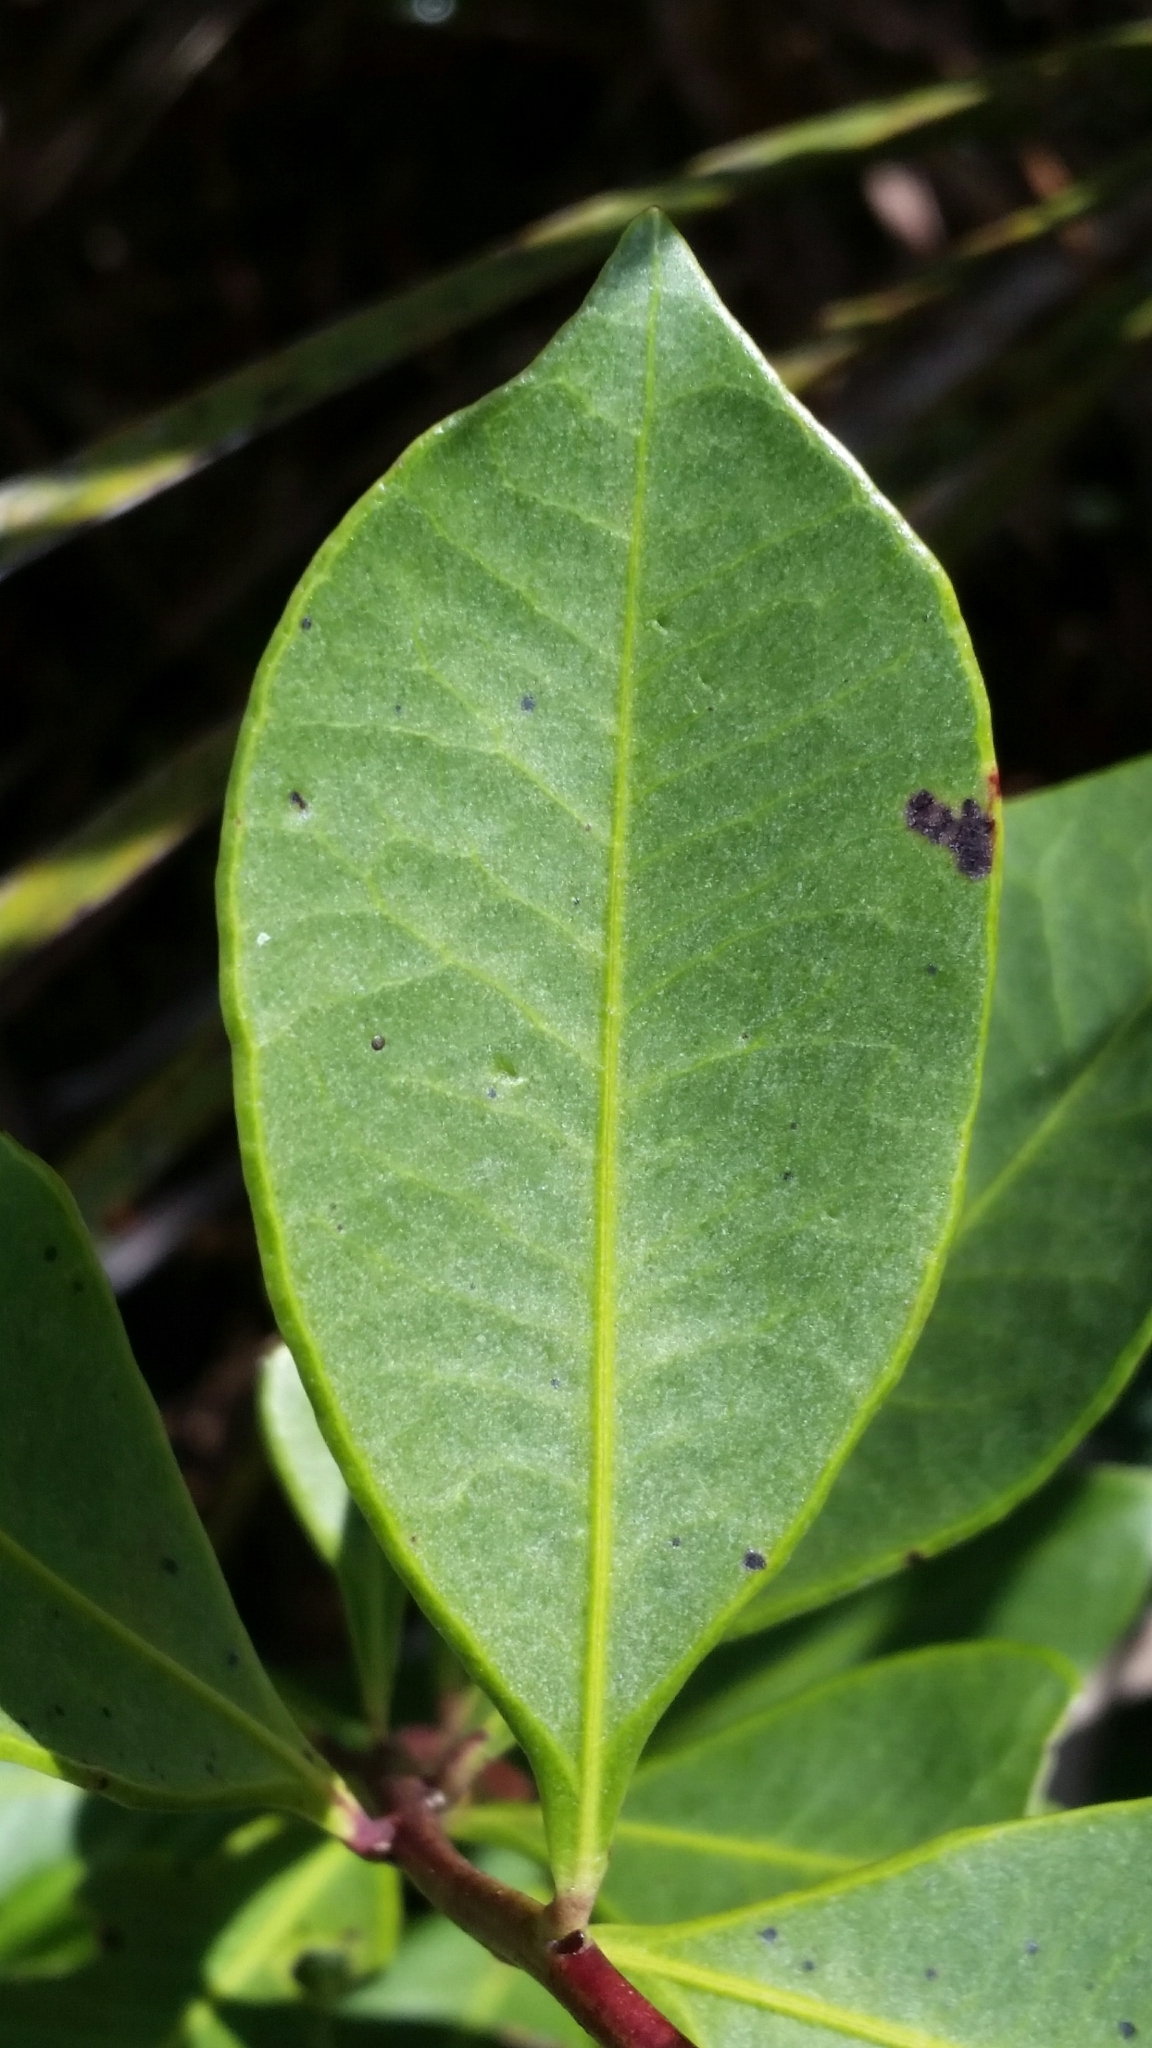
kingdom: Plantae
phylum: Tracheophyta
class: Magnoliopsida
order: Ericales
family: Ericaceae
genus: Lyonia
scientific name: Lyonia lucida
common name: Fetterbush
